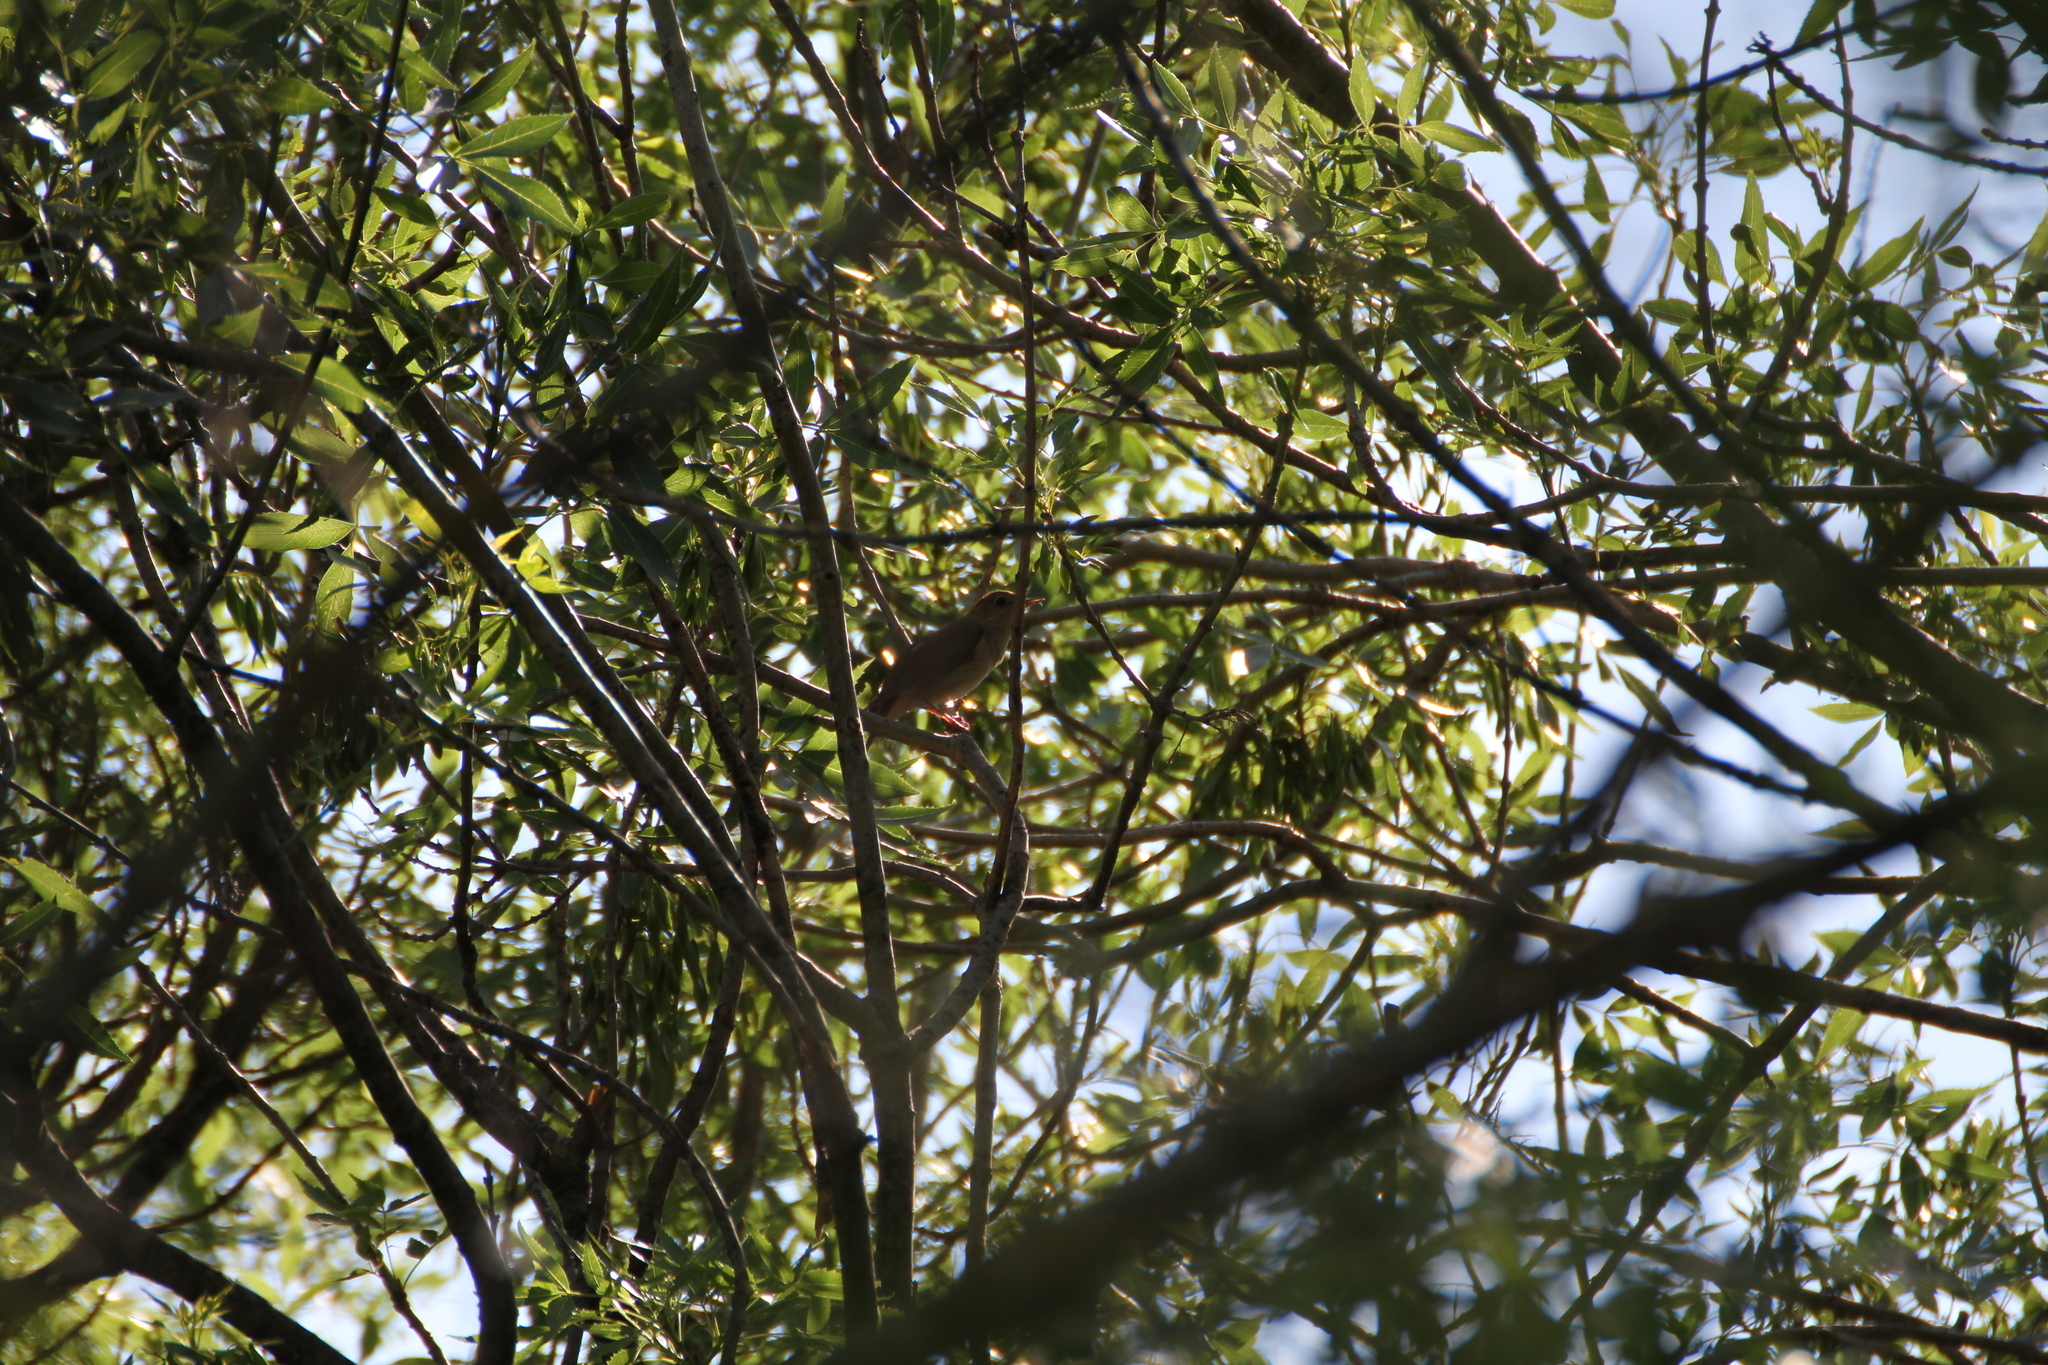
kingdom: Animalia
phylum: Chordata
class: Aves
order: Passeriformes
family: Muscicapidae
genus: Luscinia
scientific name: Luscinia megarhynchos
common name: Common nightingale
